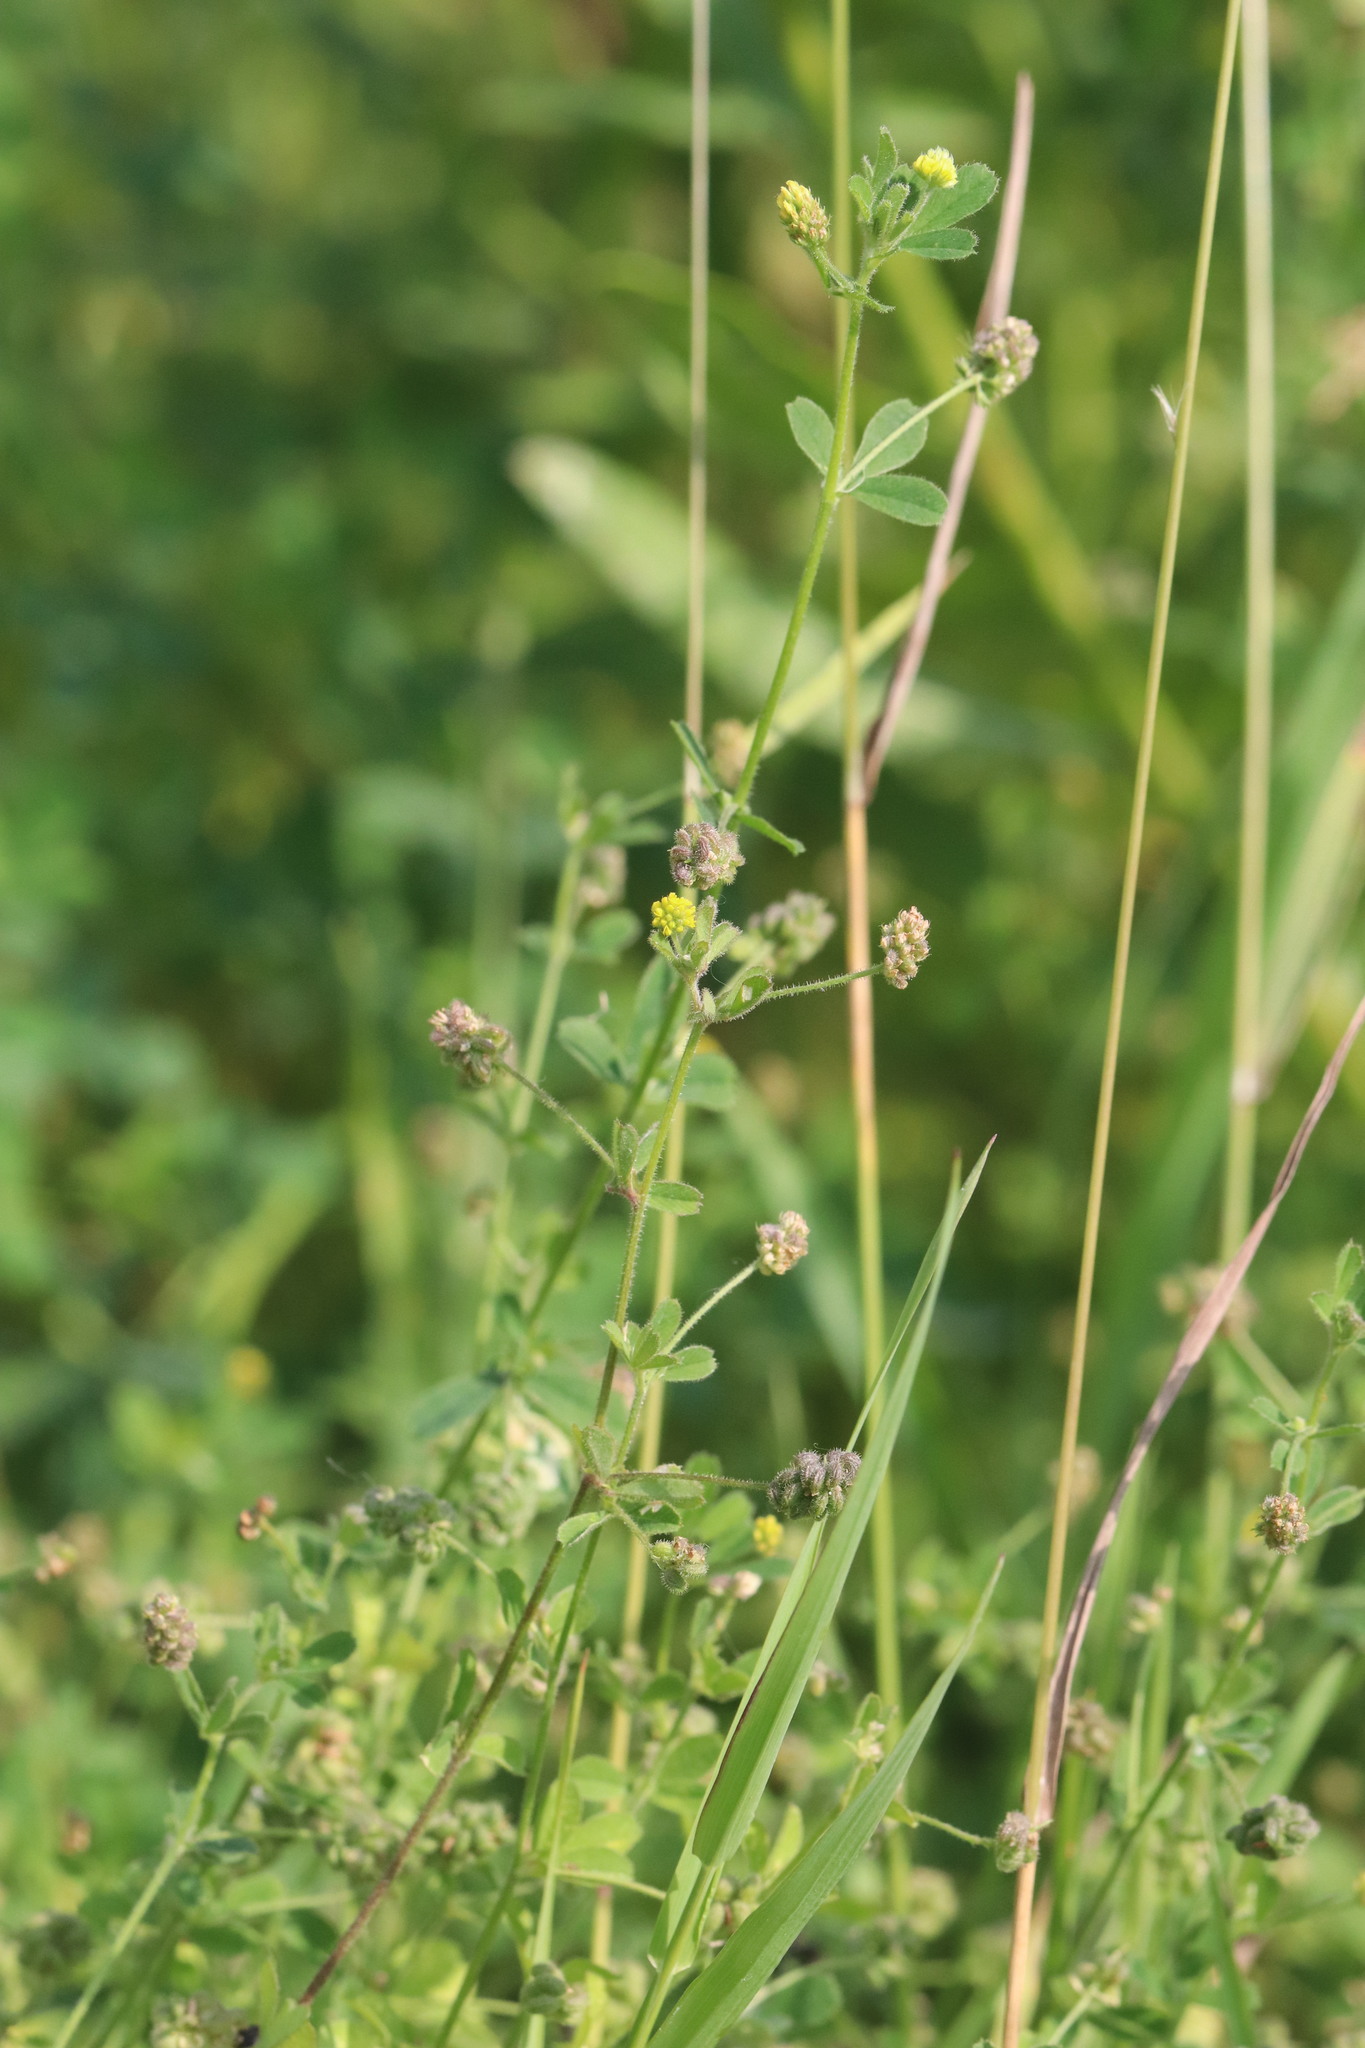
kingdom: Plantae
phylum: Tracheophyta
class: Magnoliopsida
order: Fabales
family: Fabaceae
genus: Medicago
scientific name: Medicago lupulina
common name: Black medick
